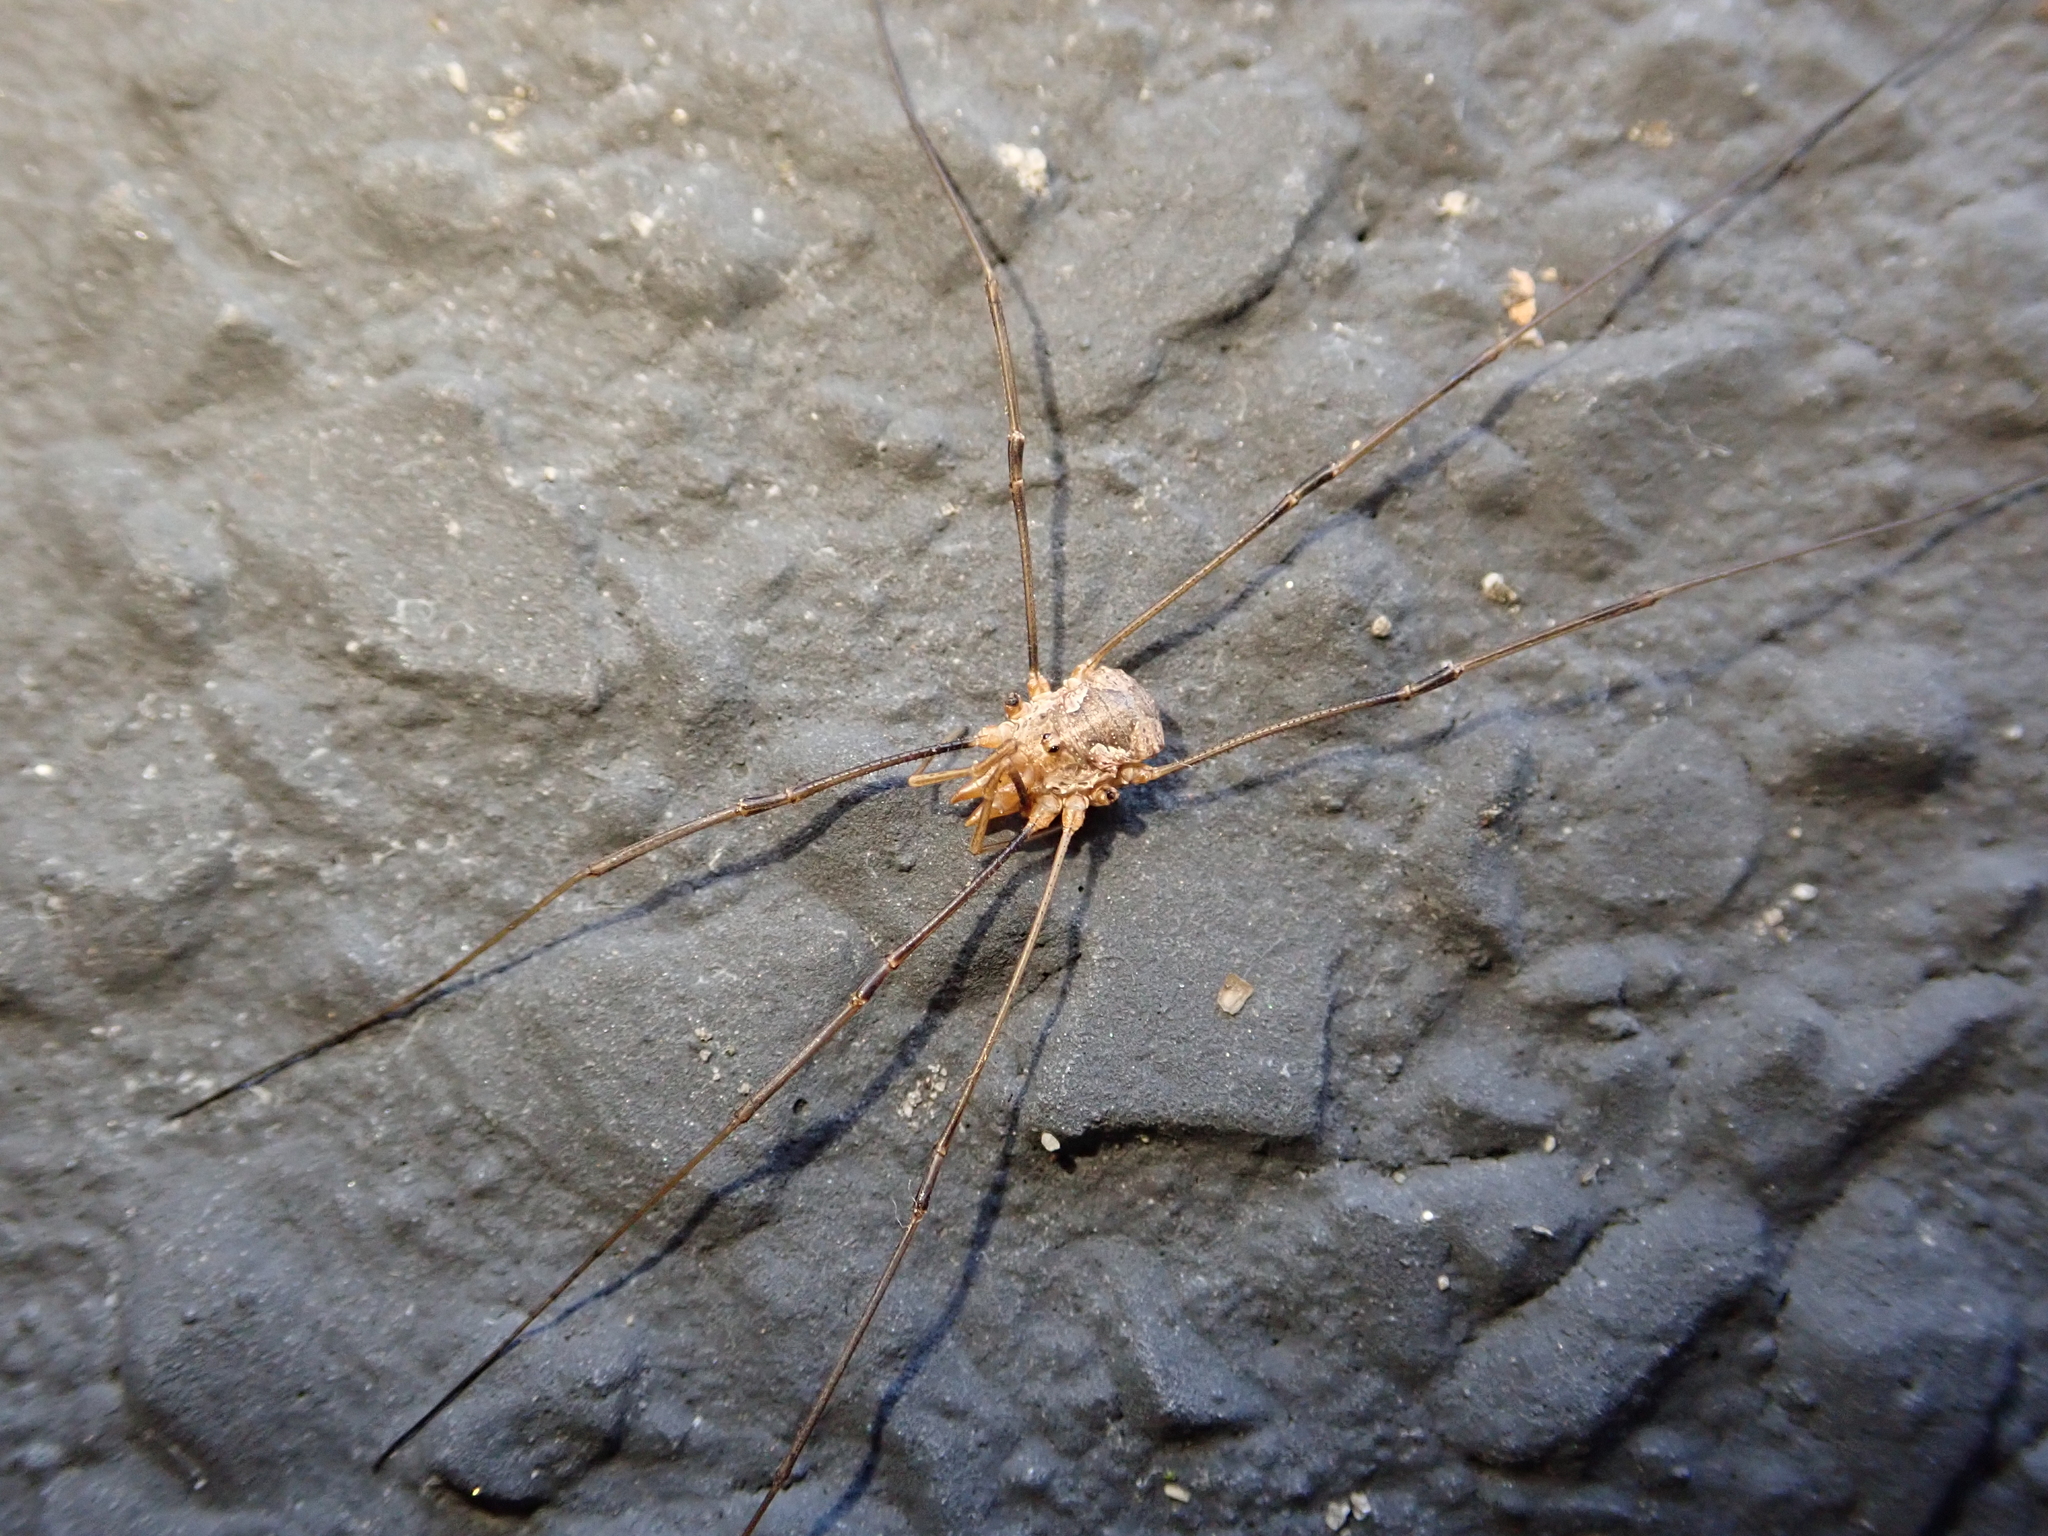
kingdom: Animalia
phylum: Arthropoda
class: Arachnida
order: Opiliones
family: Phalangiidae
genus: Phalangium
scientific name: Phalangium opilio
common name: Daddy longleg
